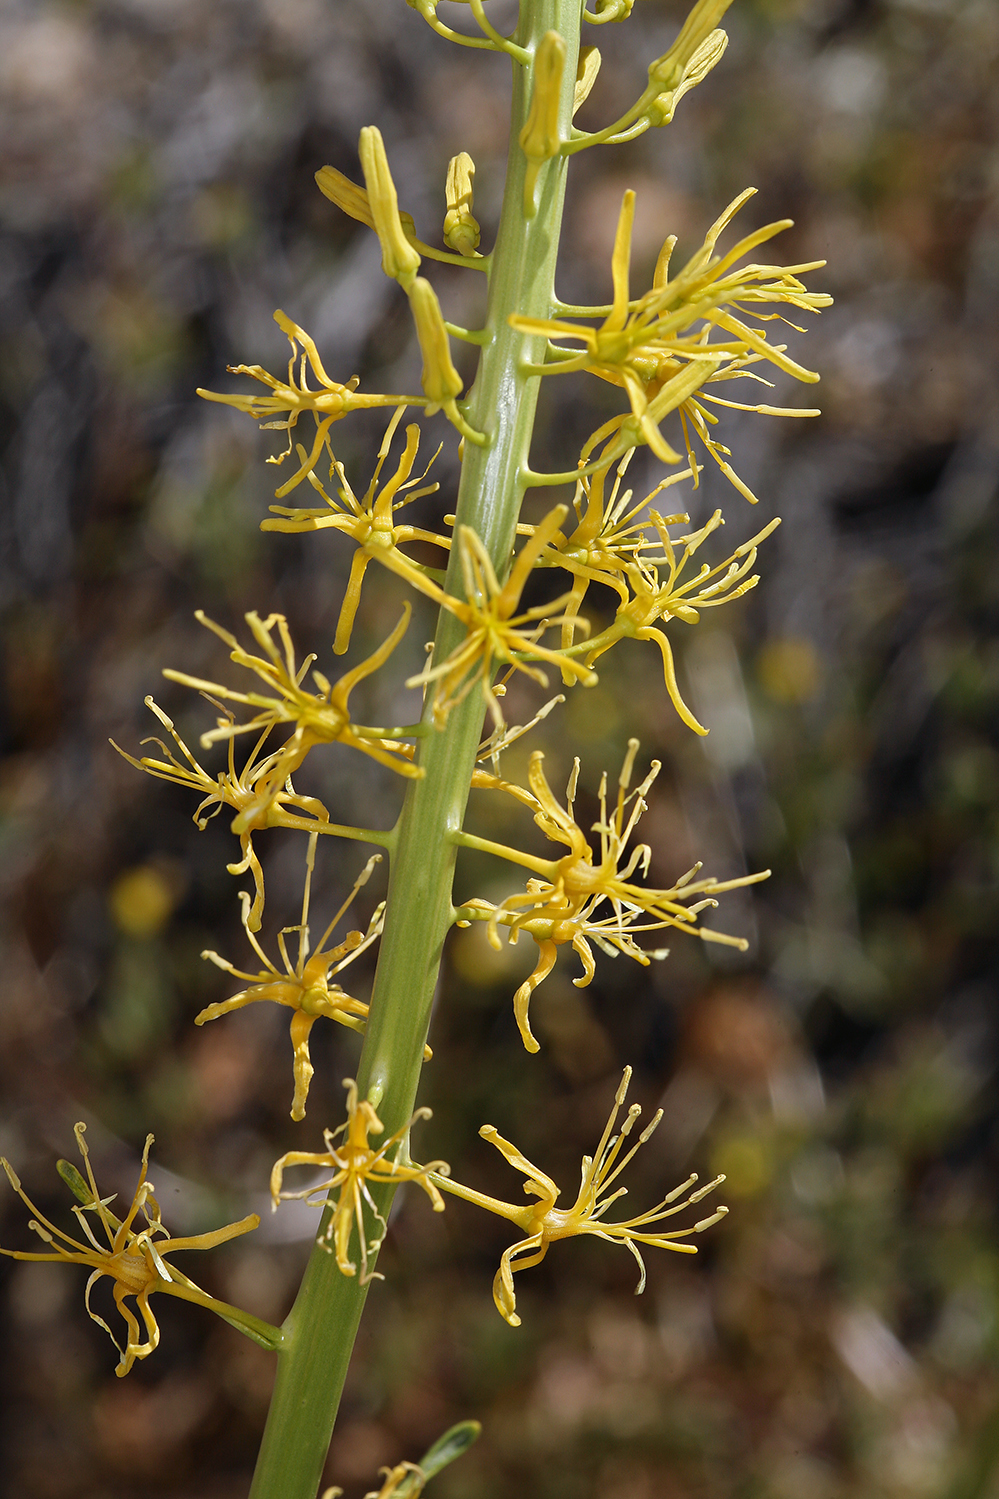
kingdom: Plantae
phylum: Tracheophyta
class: Magnoliopsida
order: Brassicales
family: Brassicaceae
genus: Stanleya
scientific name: Stanleya elata
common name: Panamint prince's plume
